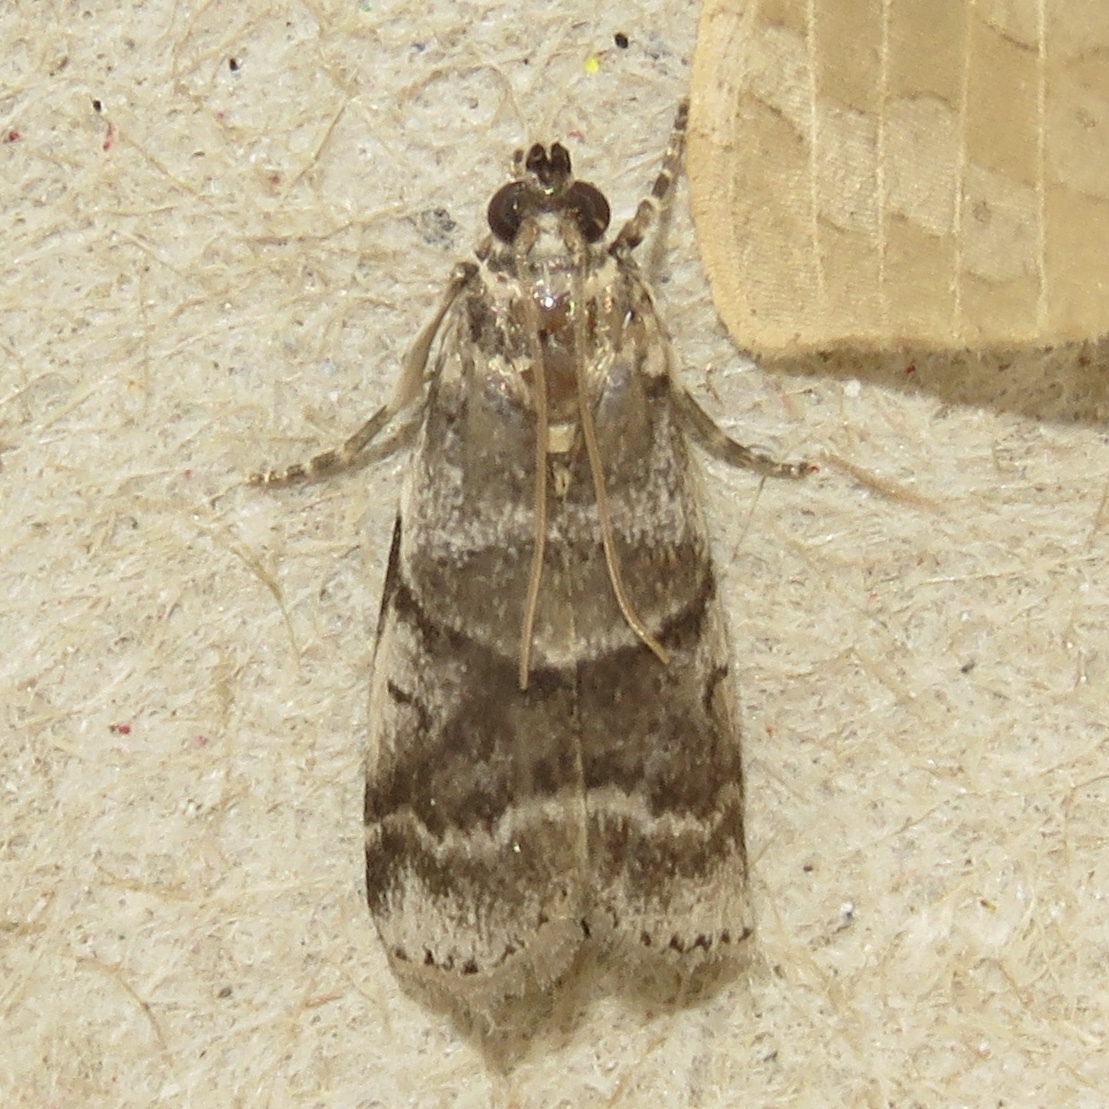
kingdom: Animalia
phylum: Arthropoda
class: Insecta
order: Lepidoptera
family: Pyralidae
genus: Acrobasis
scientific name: Acrobasis indigenella
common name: Leaf crumpler moth
